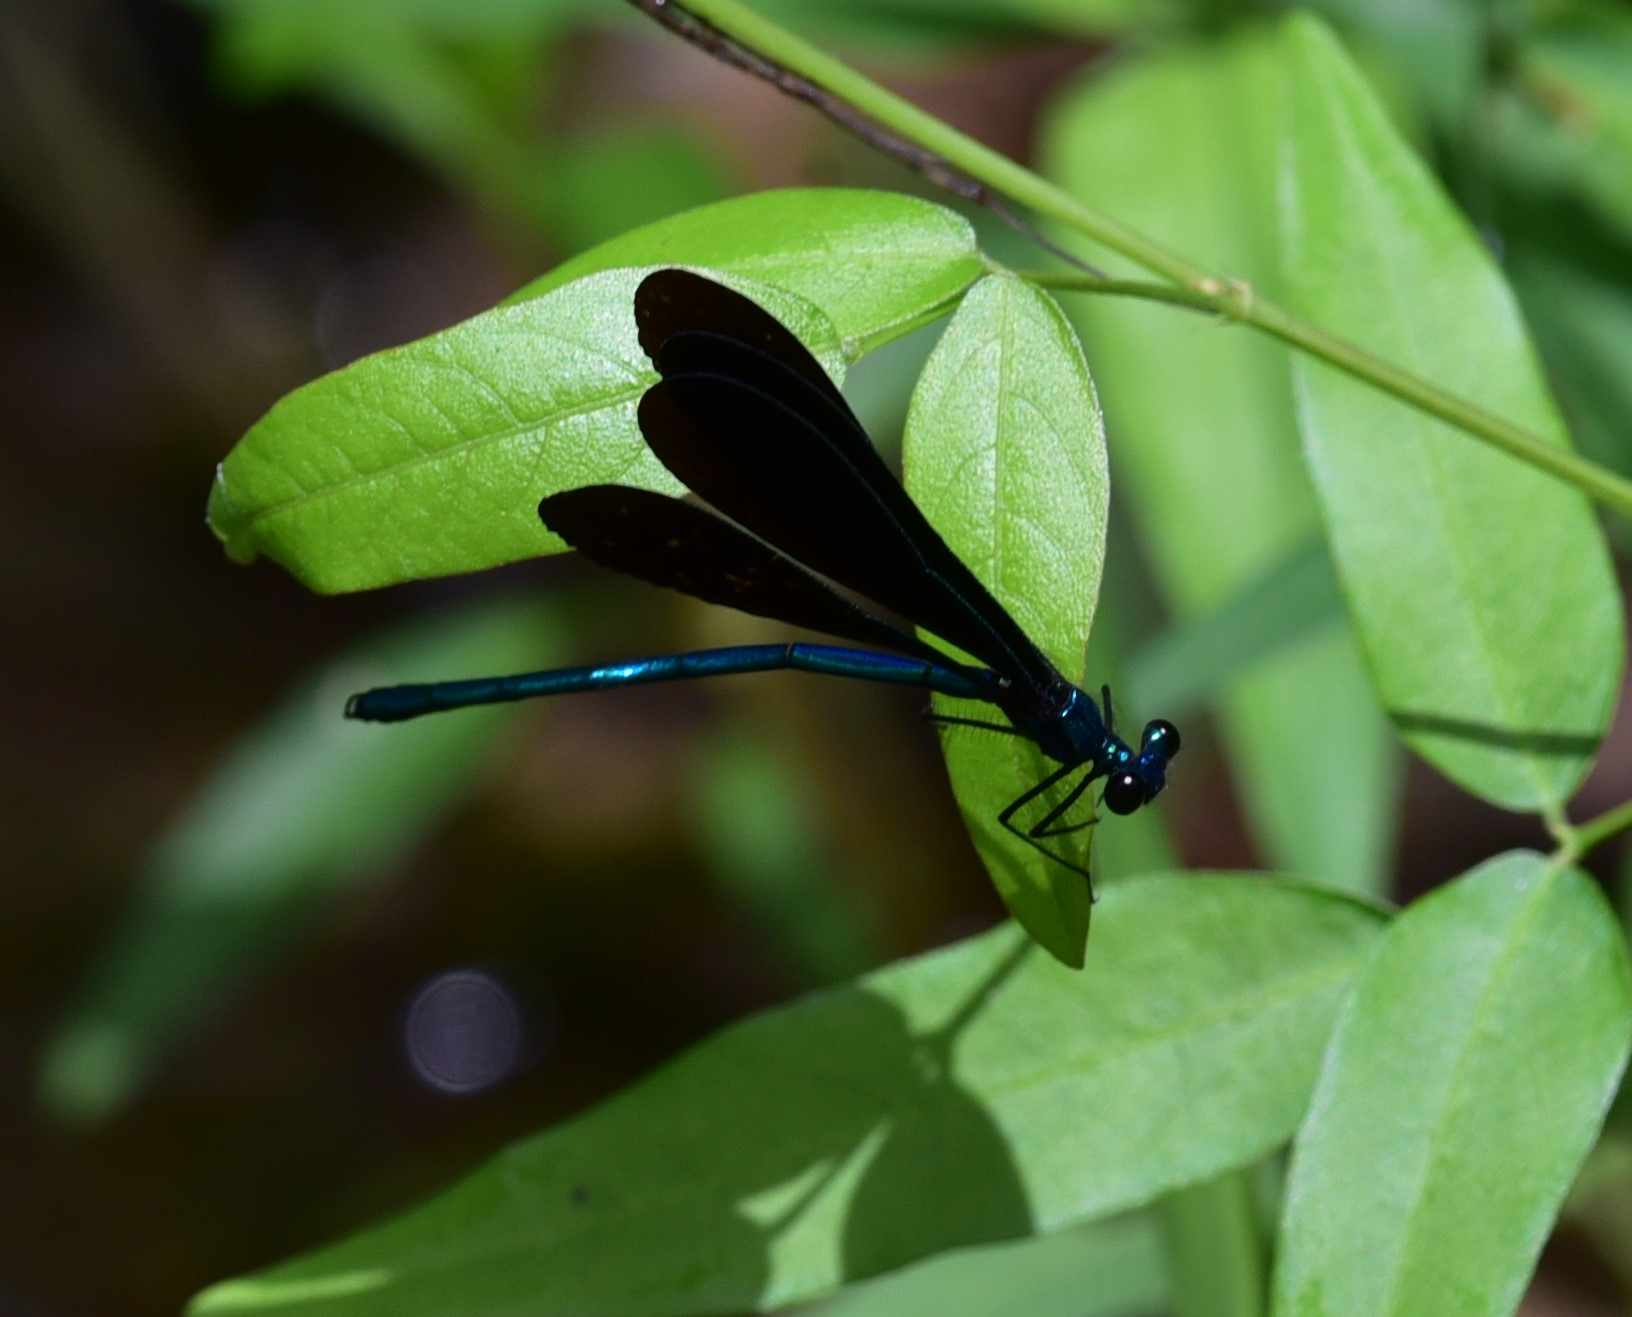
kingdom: Animalia
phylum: Arthropoda
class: Insecta
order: Odonata
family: Calopterygidae
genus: Calopteryx
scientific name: Calopteryx maculata
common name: Ebony jewelwing
